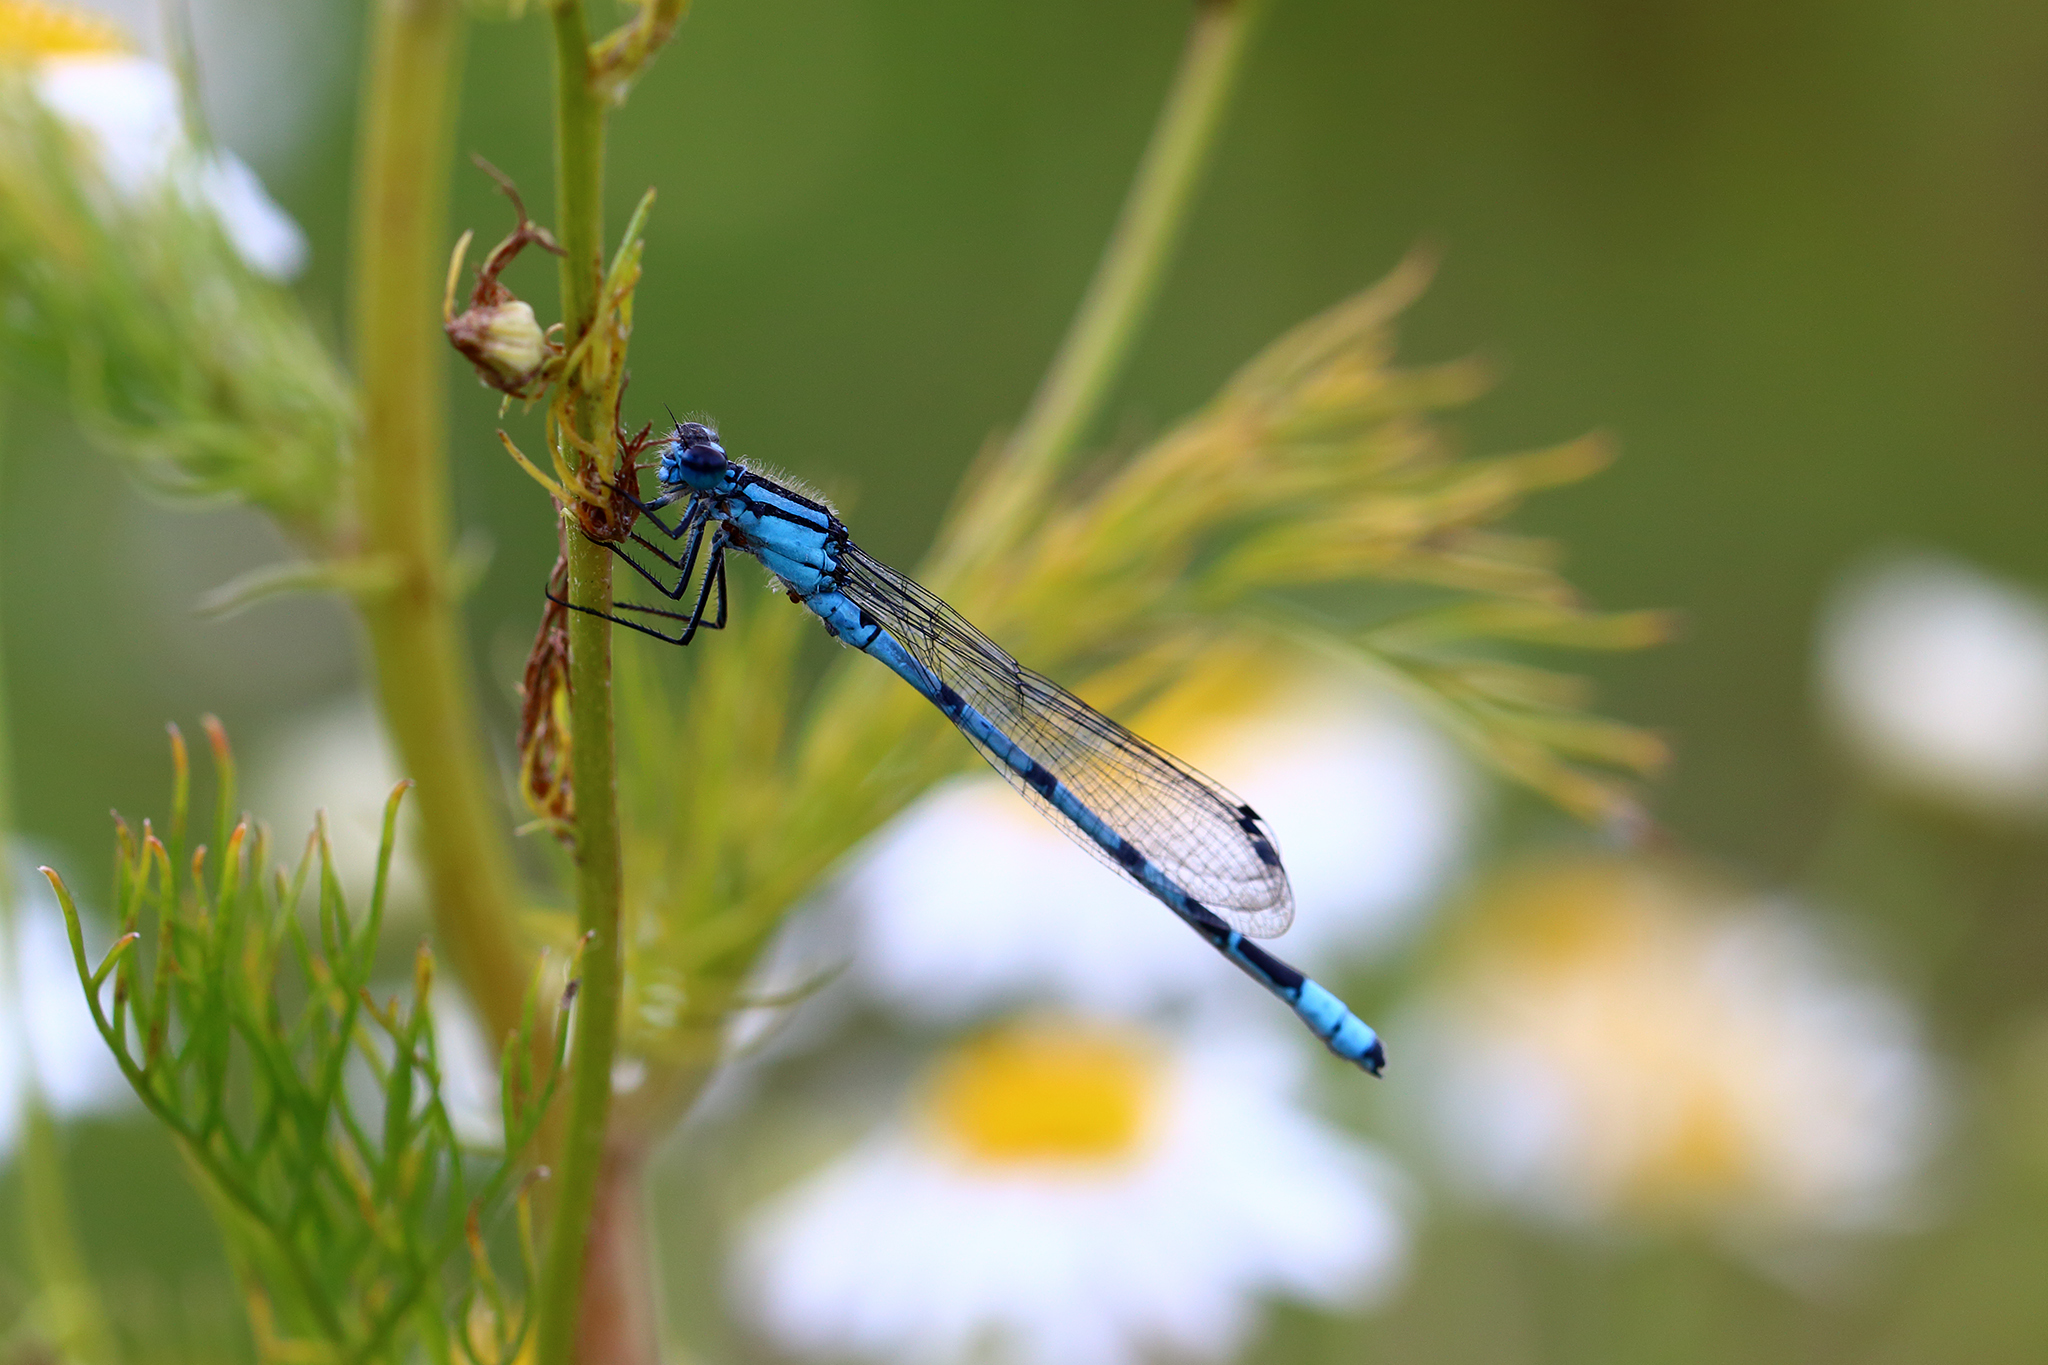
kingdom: Animalia
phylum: Arthropoda
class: Insecta
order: Odonata
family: Coenagrionidae
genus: Enallagma
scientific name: Enallagma cyathigerum
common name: Common blue damselfly
